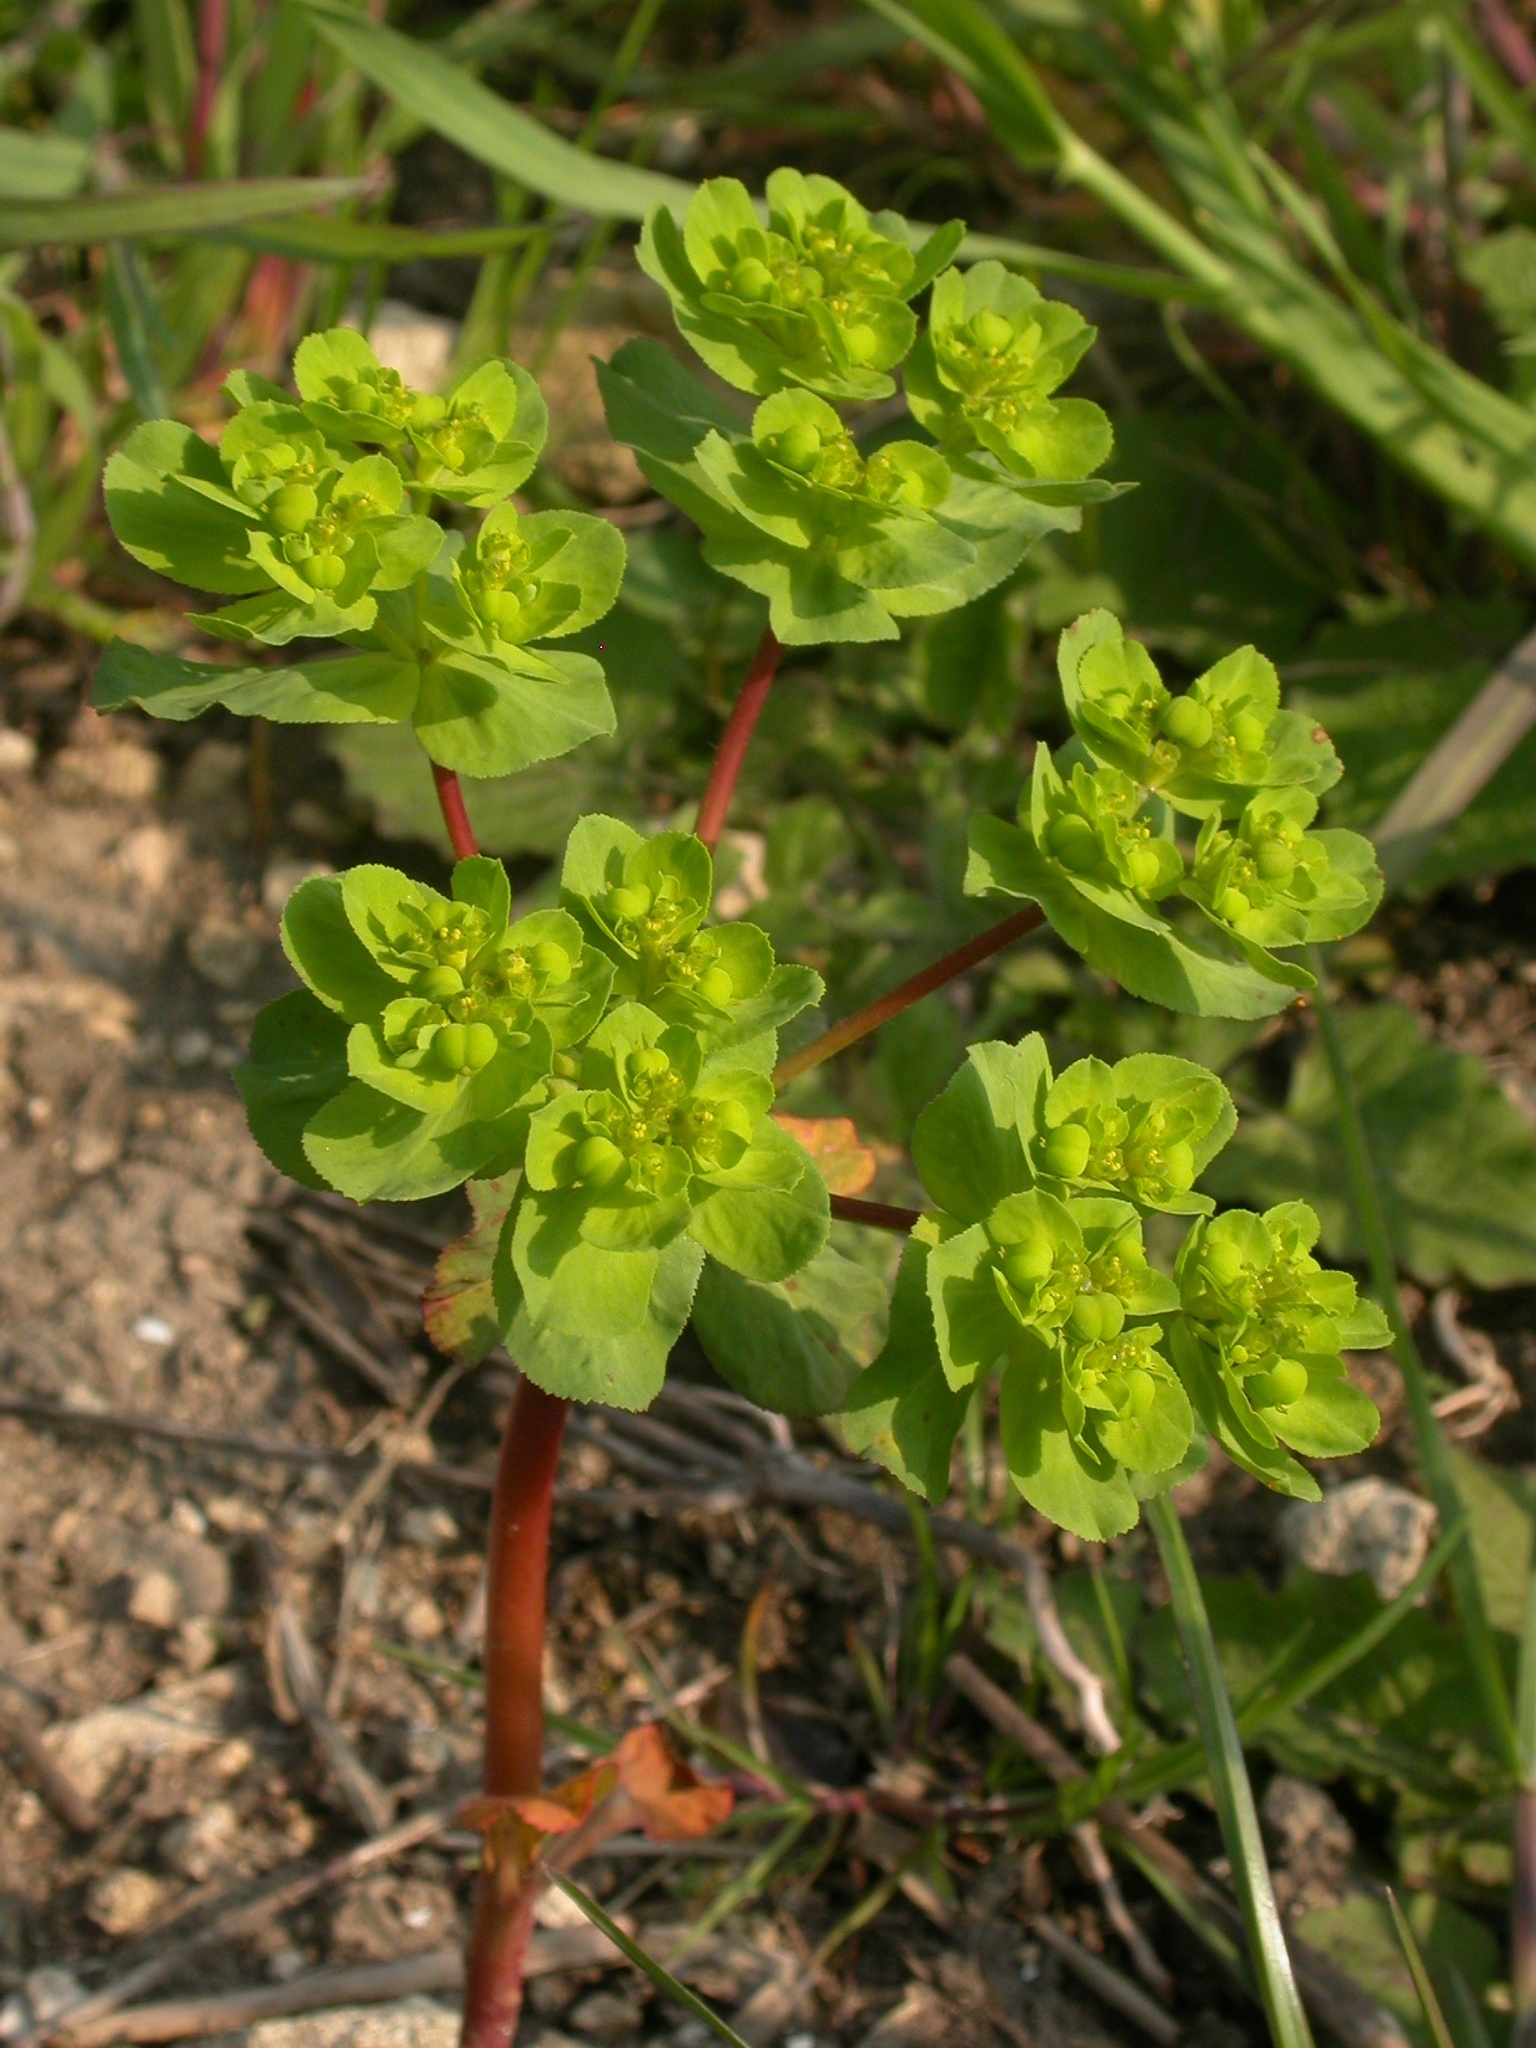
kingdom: Plantae
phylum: Tracheophyta
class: Magnoliopsida
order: Malpighiales
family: Euphorbiaceae
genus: Euphorbia
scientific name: Euphorbia helioscopia
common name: Sun spurge
